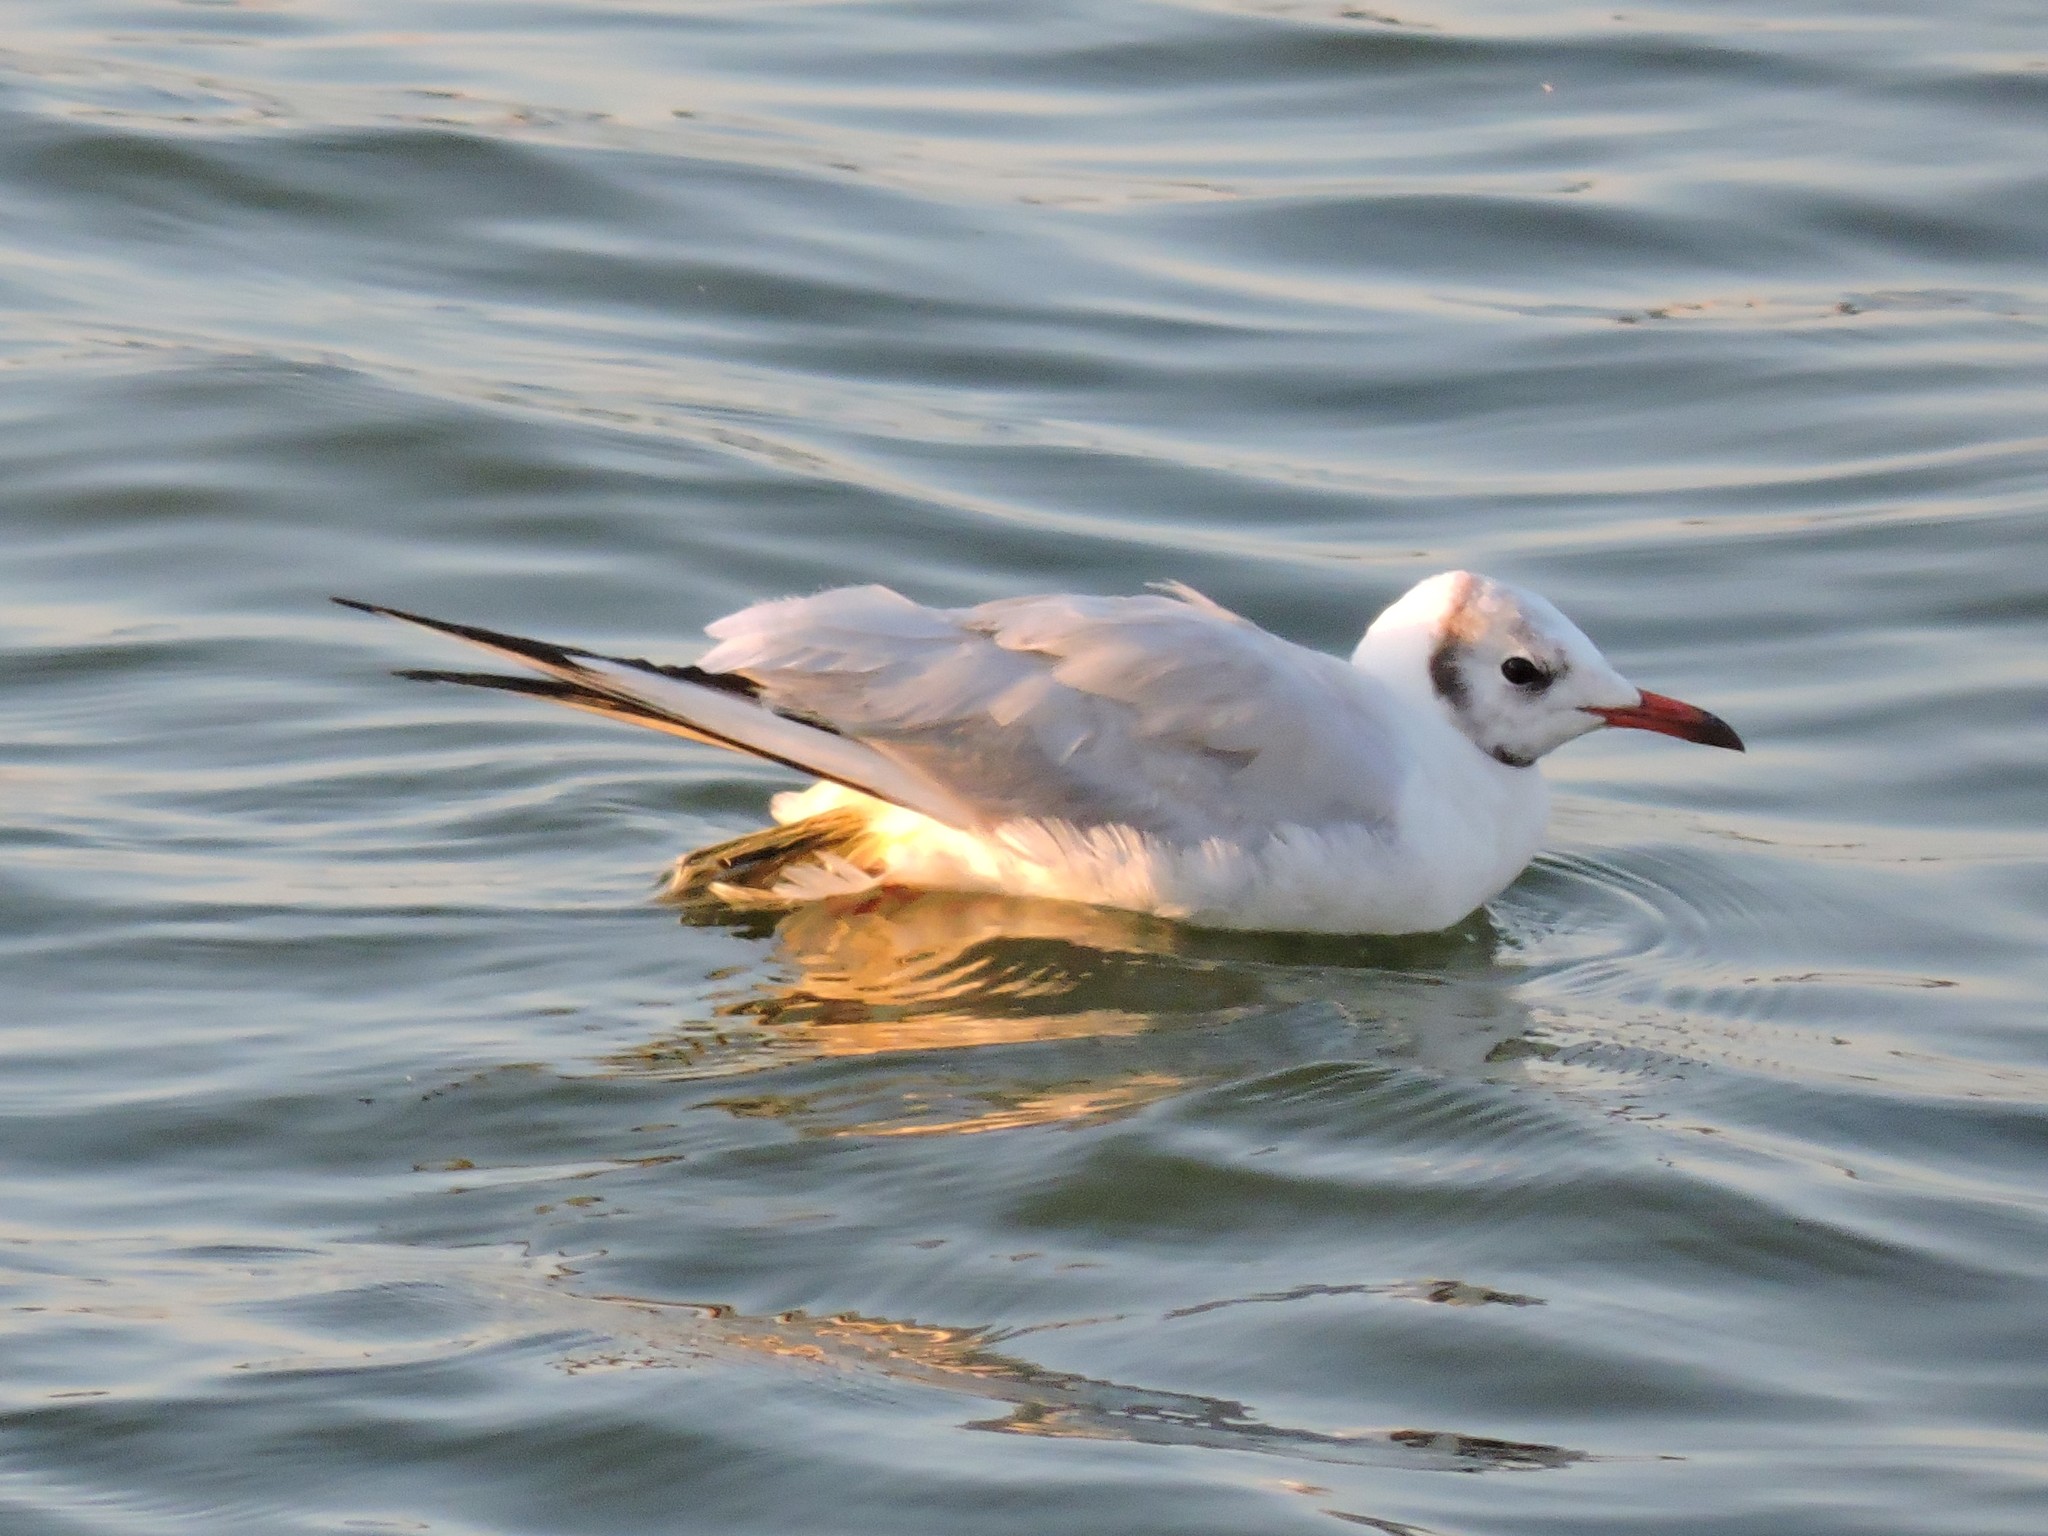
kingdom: Animalia
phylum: Chordata
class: Aves
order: Charadriiformes
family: Laridae
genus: Chroicocephalus
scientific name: Chroicocephalus ridibundus
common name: Black-headed gull
